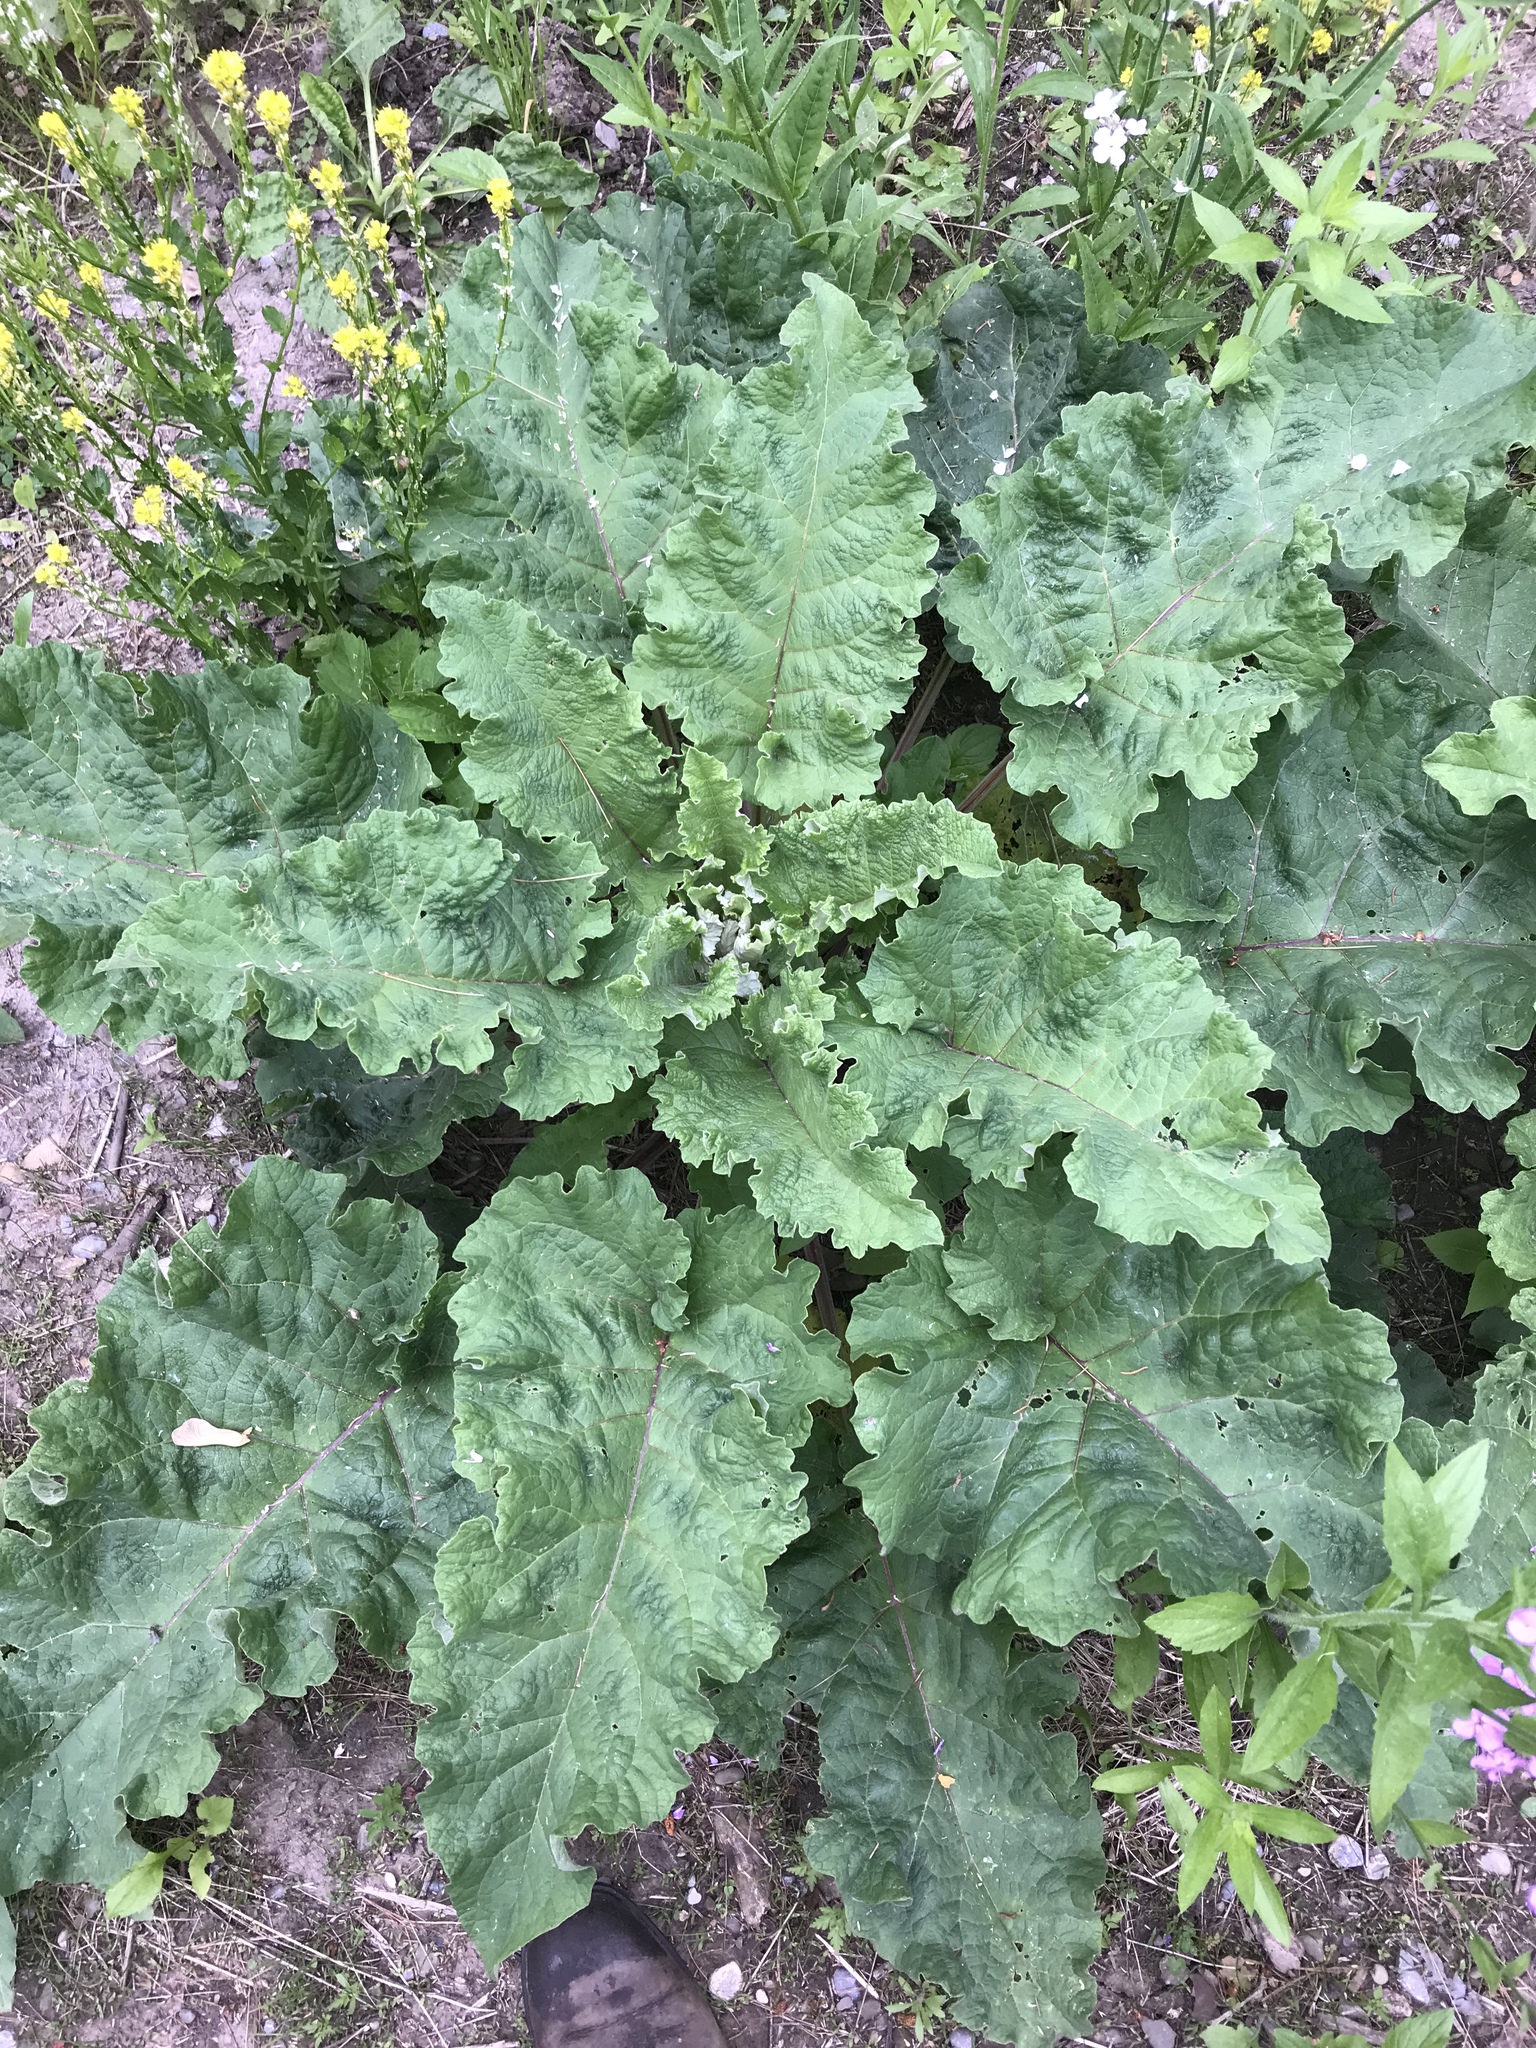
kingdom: Plantae
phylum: Tracheophyta
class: Magnoliopsida
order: Asterales
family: Asteraceae
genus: Arctium
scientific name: Arctium lappa
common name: Greater burdock
